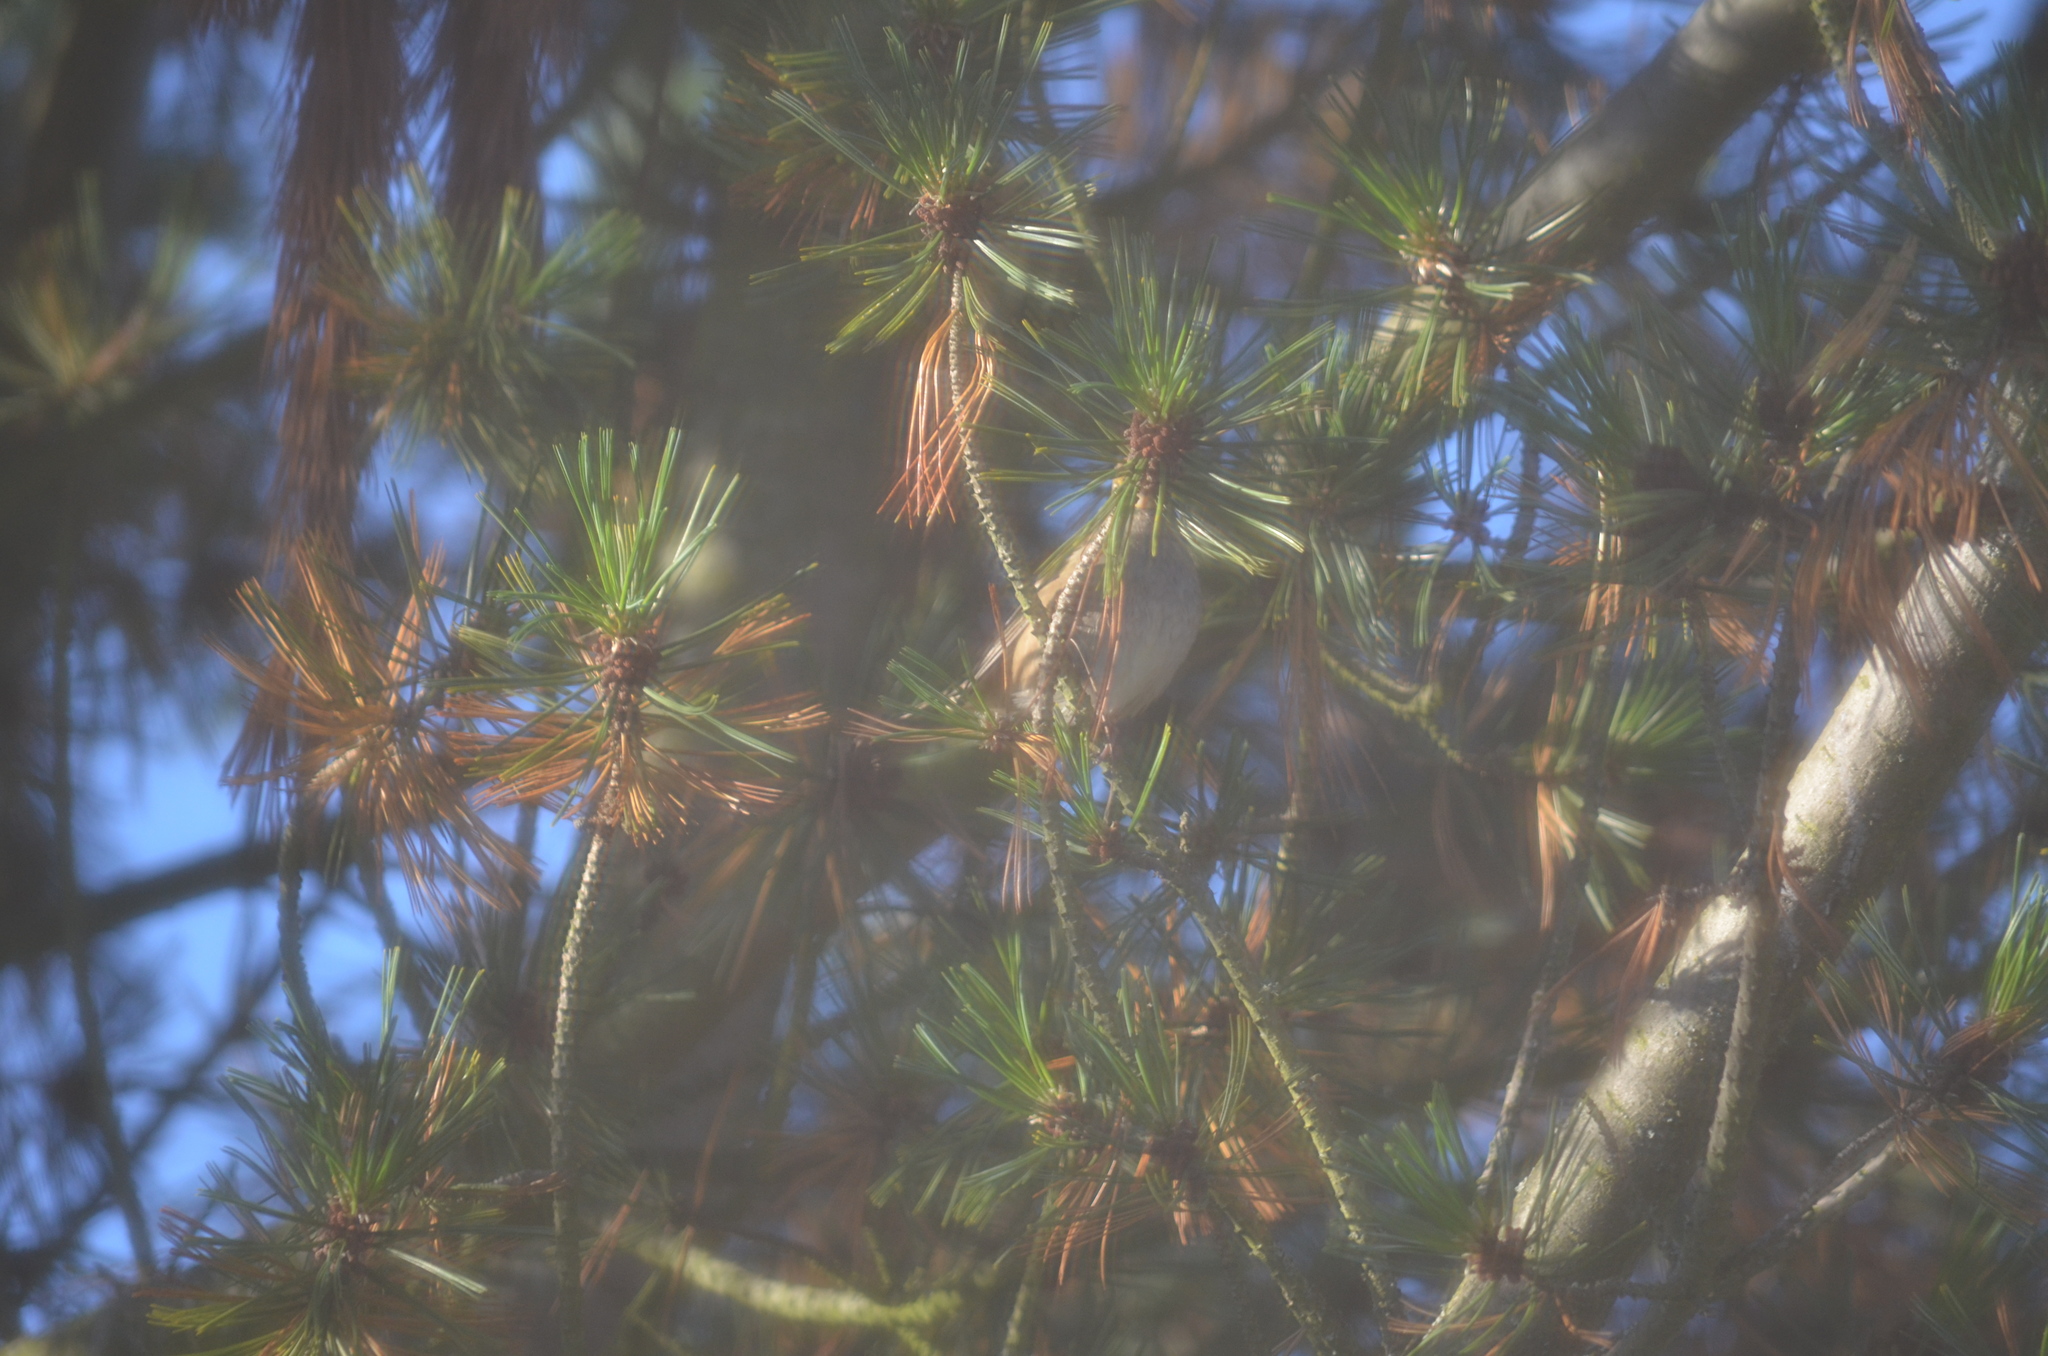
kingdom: Animalia
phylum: Chordata
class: Aves
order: Passeriformes
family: Passerellidae
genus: Zonotrichia
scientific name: Zonotrichia atricapilla
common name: Golden-crowned sparrow
